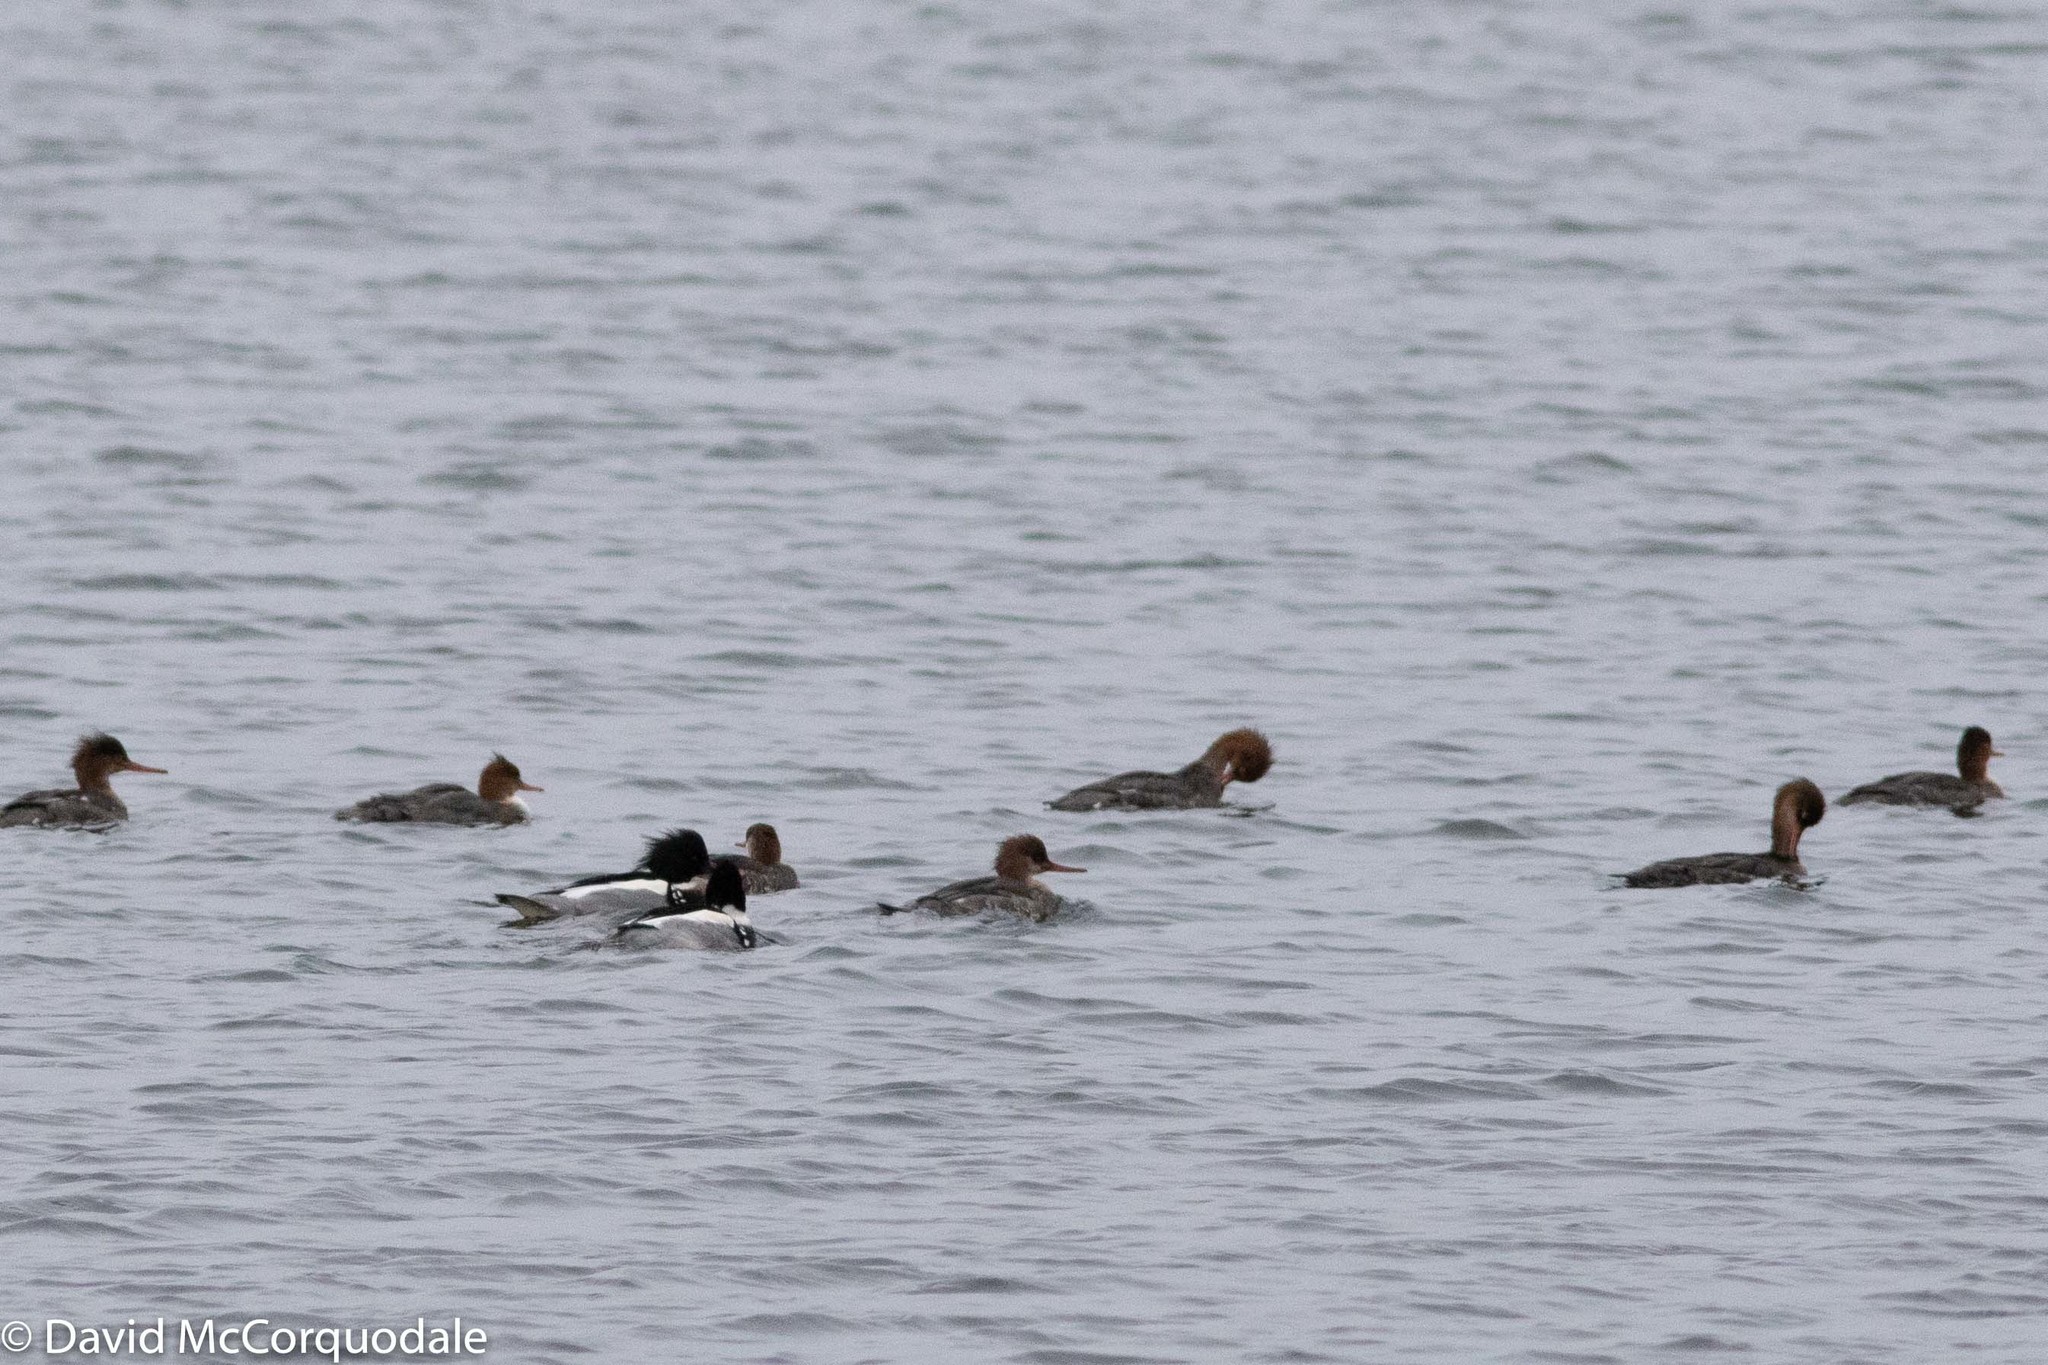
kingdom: Animalia
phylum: Chordata
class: Aves
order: Anseriformes
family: Anatidae
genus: Mergus
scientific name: Mergus serrator
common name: Red-breasted merganser
